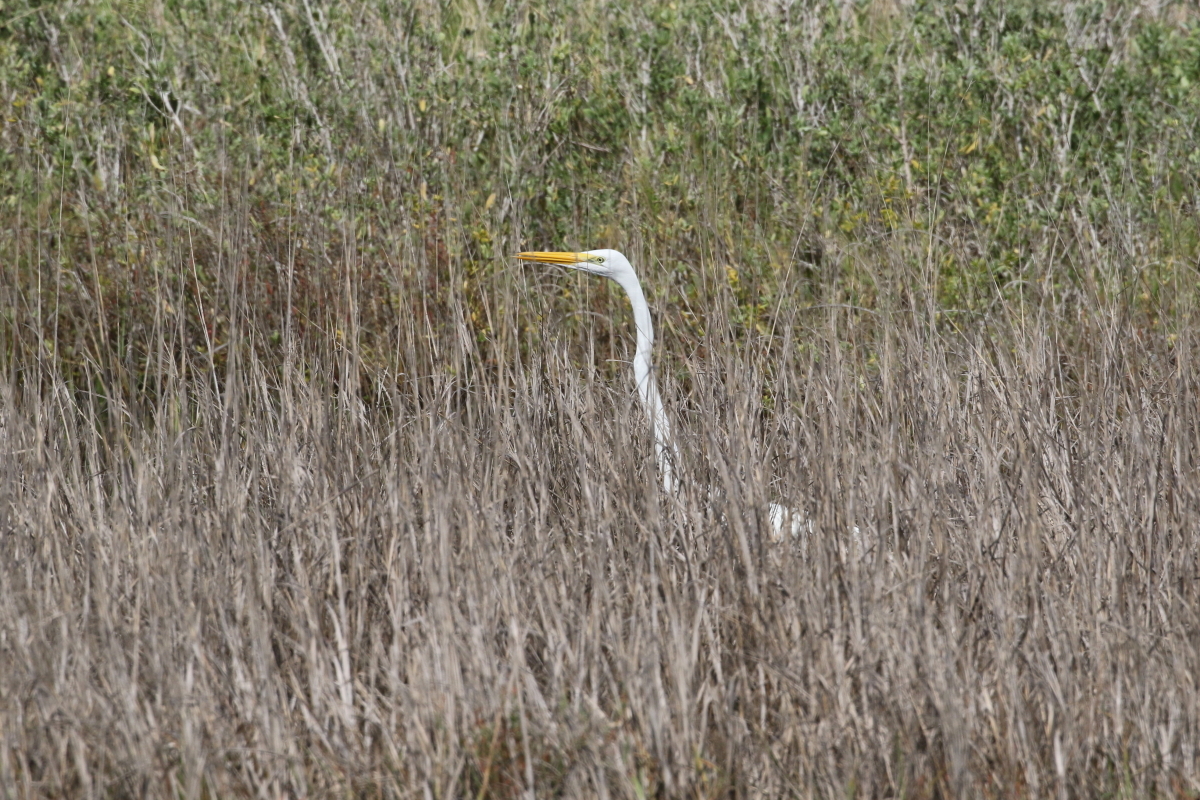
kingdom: Animalia
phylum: Chordata
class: Aves
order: Pelecaniformes
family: Ardeidae
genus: Ardea
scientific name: Ardea alba
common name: Great egret
